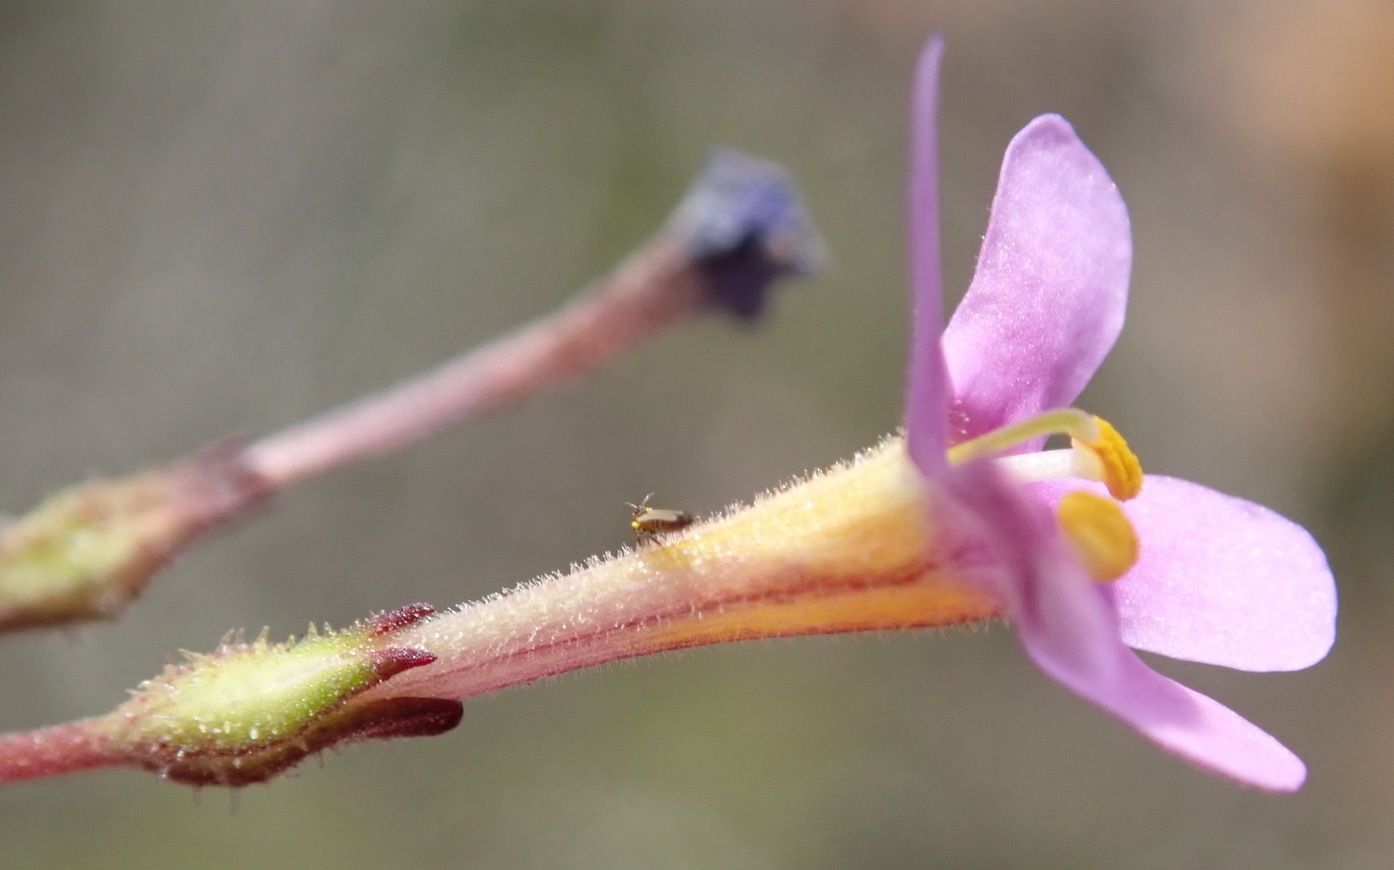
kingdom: Plantae
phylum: Tracheophyta
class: Magnoliopsida
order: Lamiales
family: Scrophulariaceae
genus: Chaenostoma
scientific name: Chaenostoma denudatum
